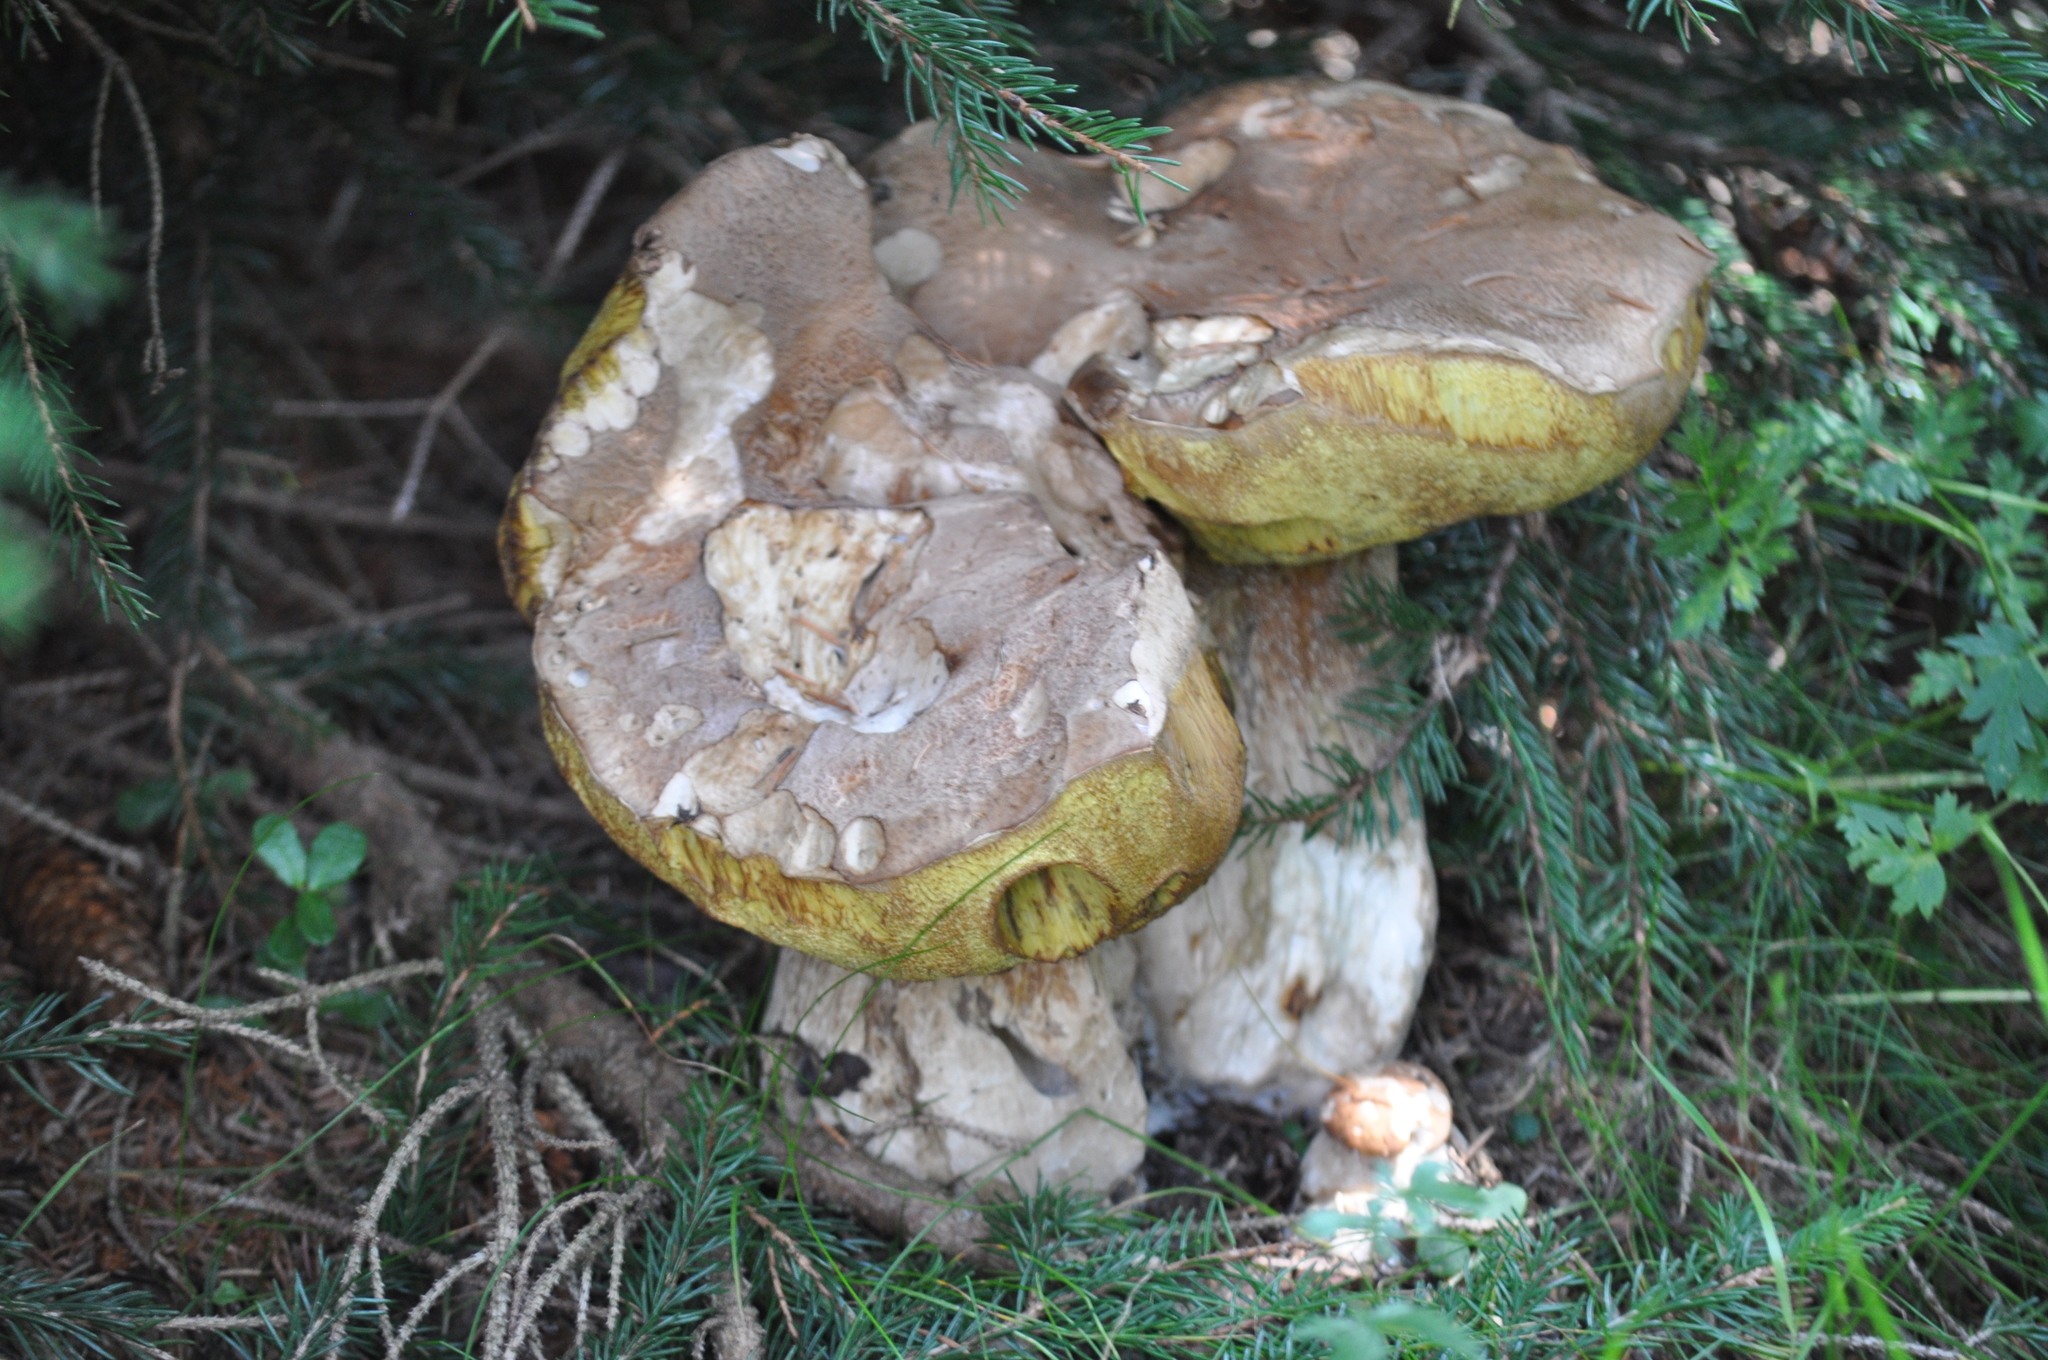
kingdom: Fungi
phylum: Basidiomycota
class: Agaricomycetes
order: Boletales
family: Boletaceae
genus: Boletus
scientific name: Boletus edulis
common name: Cep
